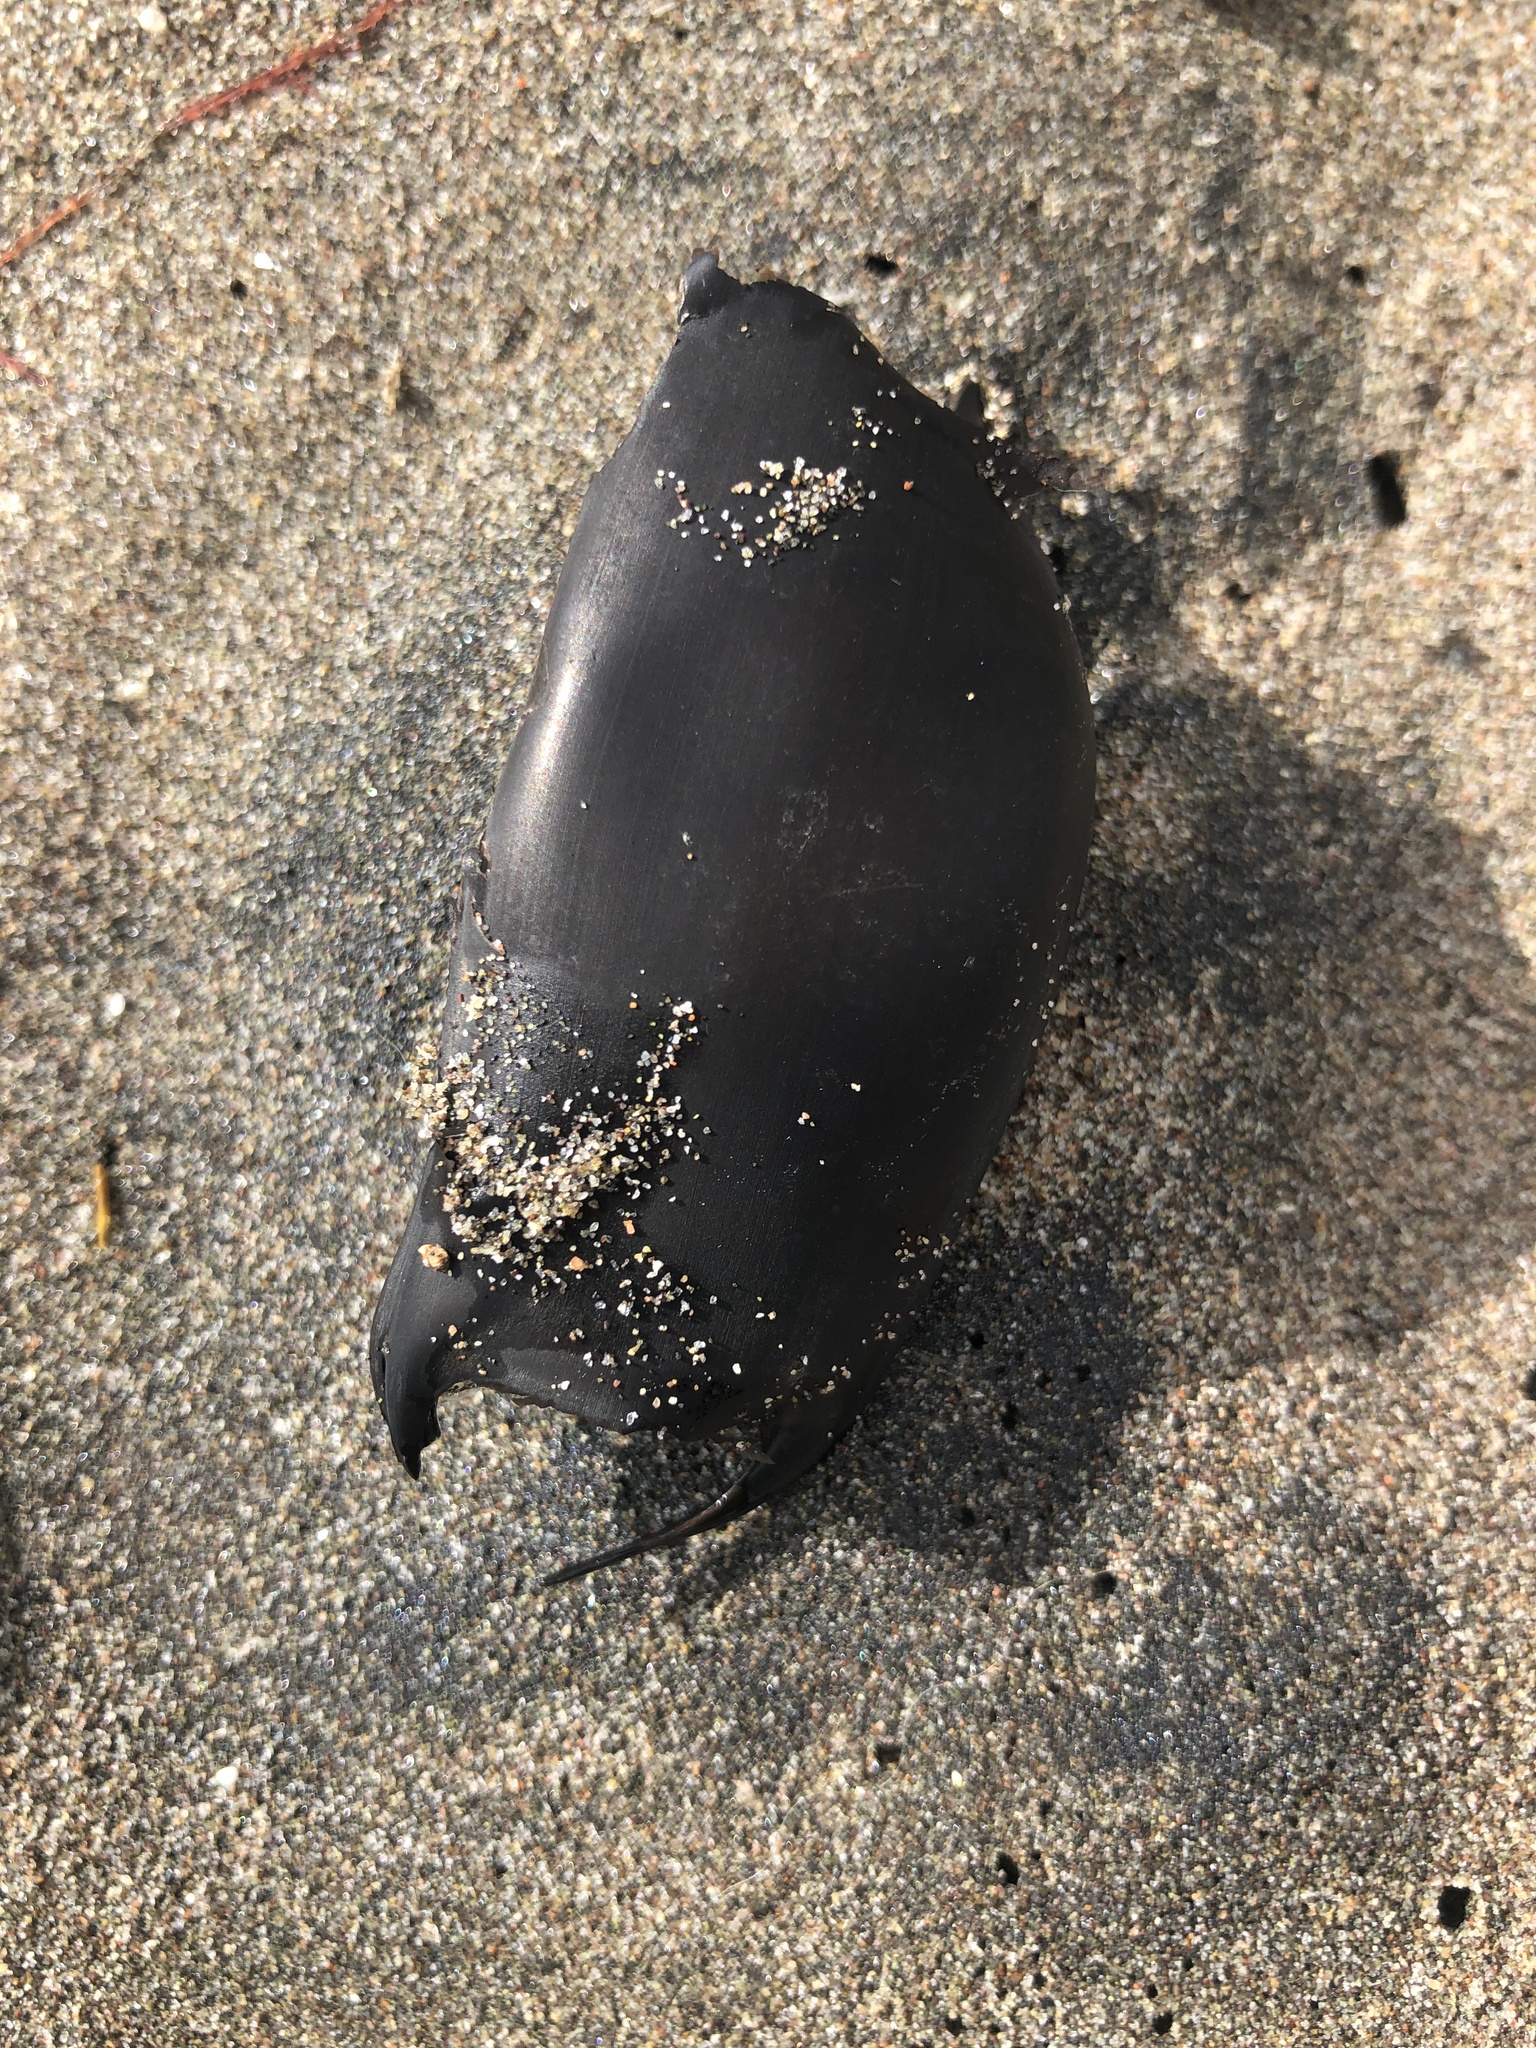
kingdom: Animalia
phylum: Chordata
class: Elasmobranchii
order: Rajiformes
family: Arhynchobatidae
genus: Sympterygia
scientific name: Sympterygia brevicaudata
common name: Shorttail fanskate
